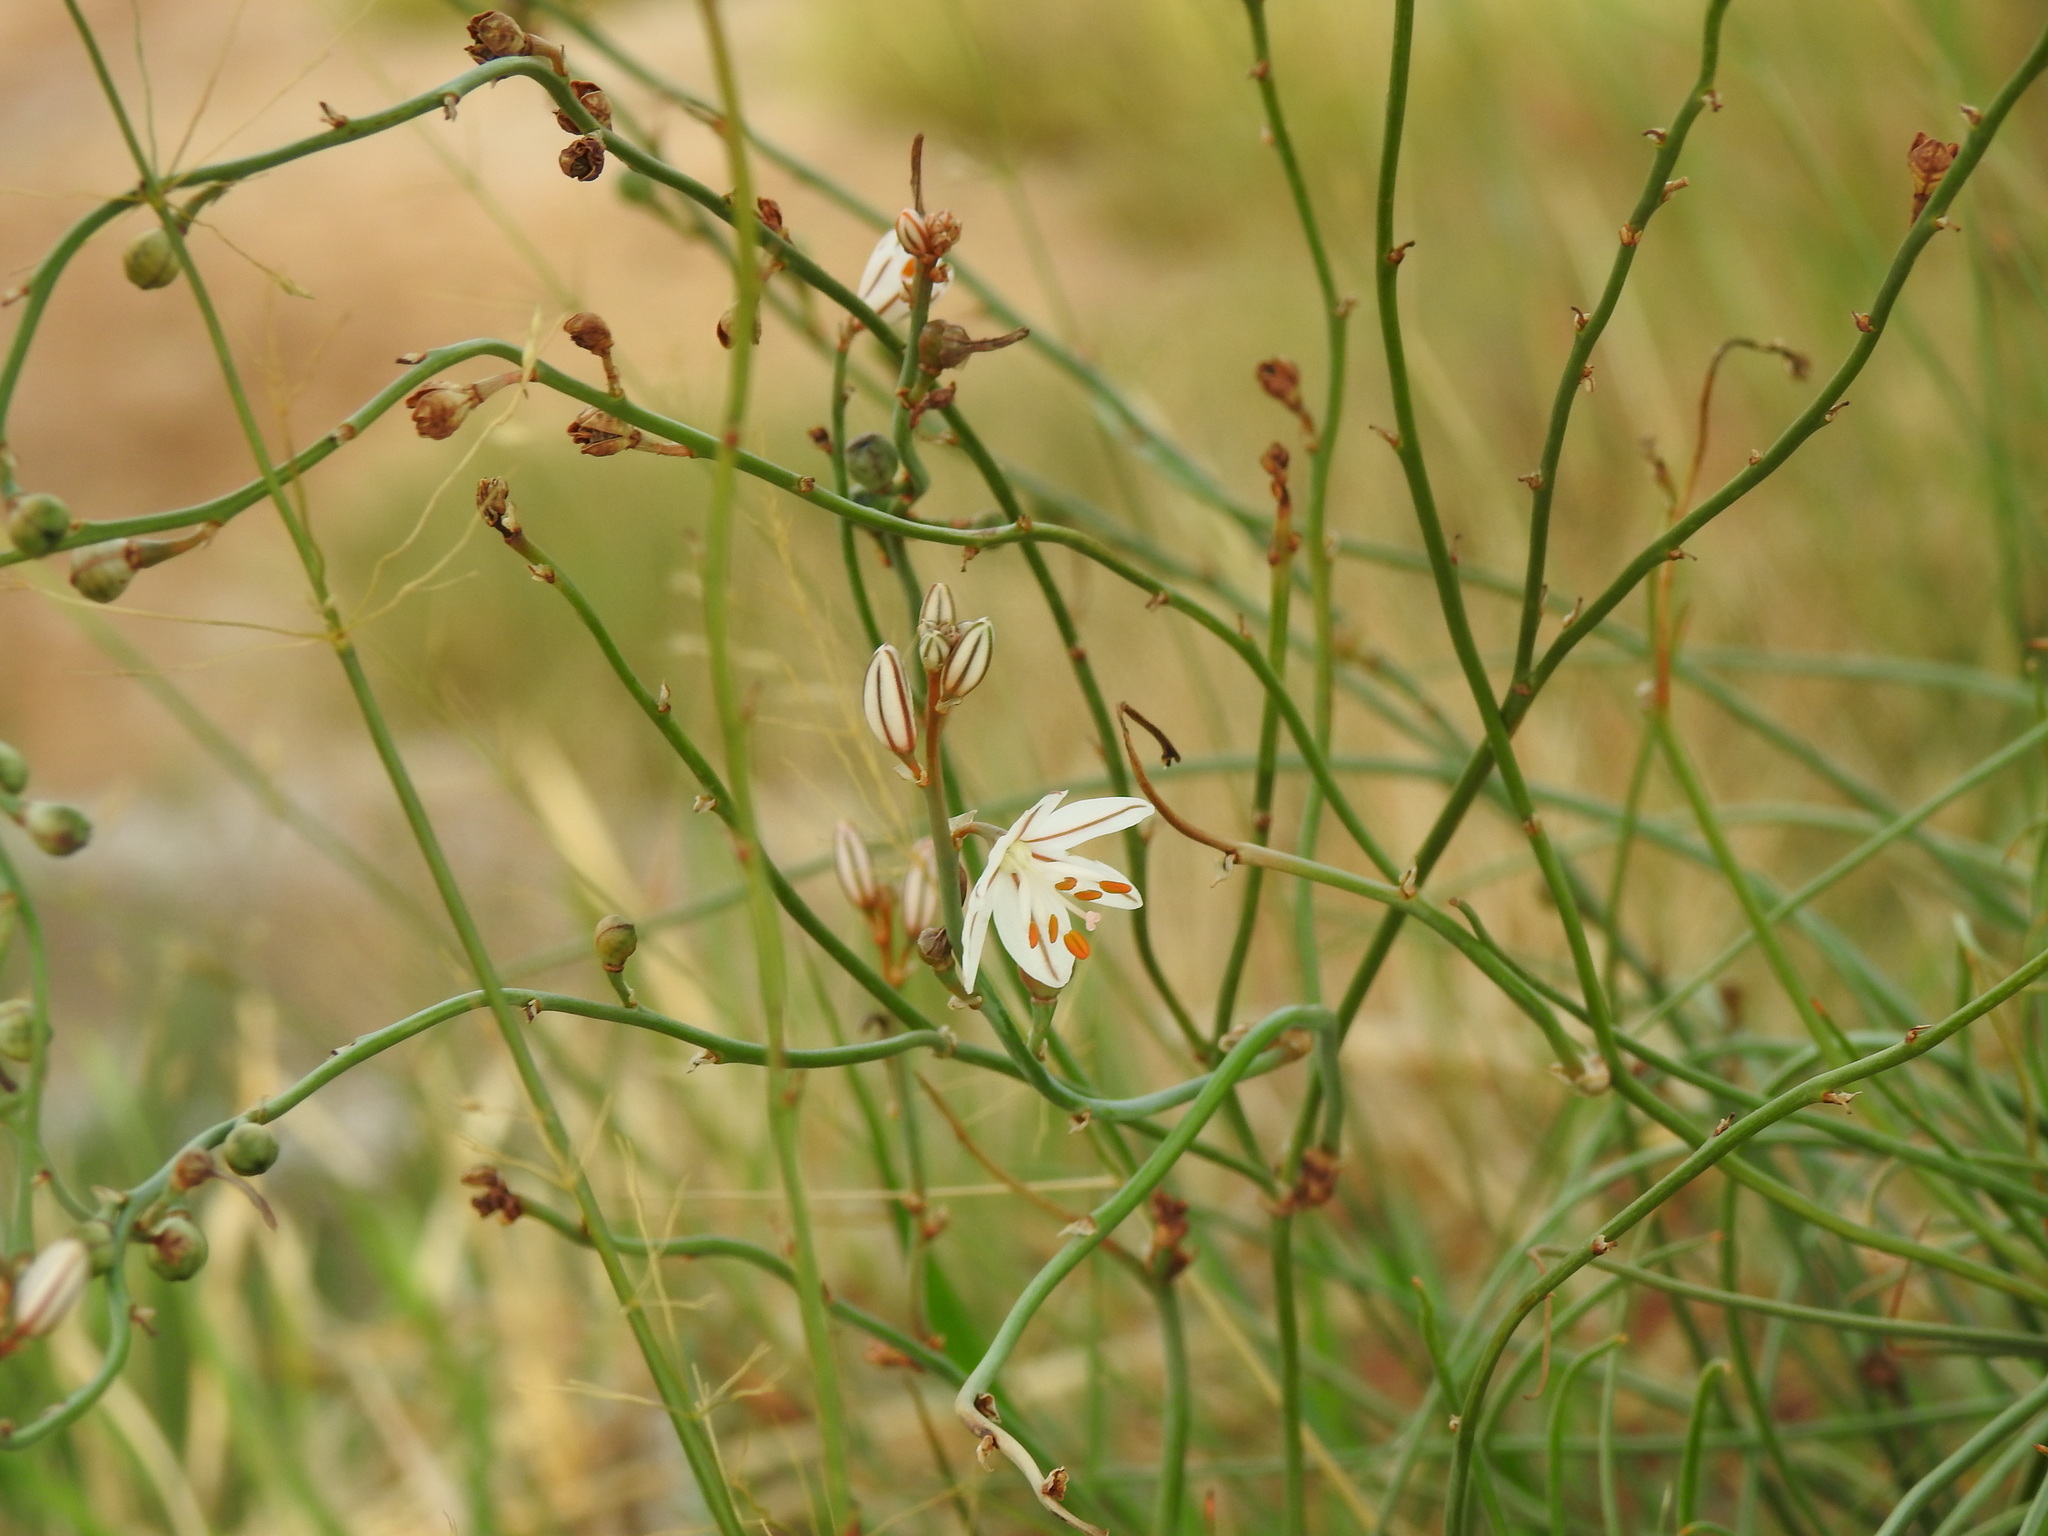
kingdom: Plantae
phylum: Tracheophyta
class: Liliopsida
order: Asparagales
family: Asphodelaceae
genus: Asphodelus
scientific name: Asphodelus fistulosus
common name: Onionweed
